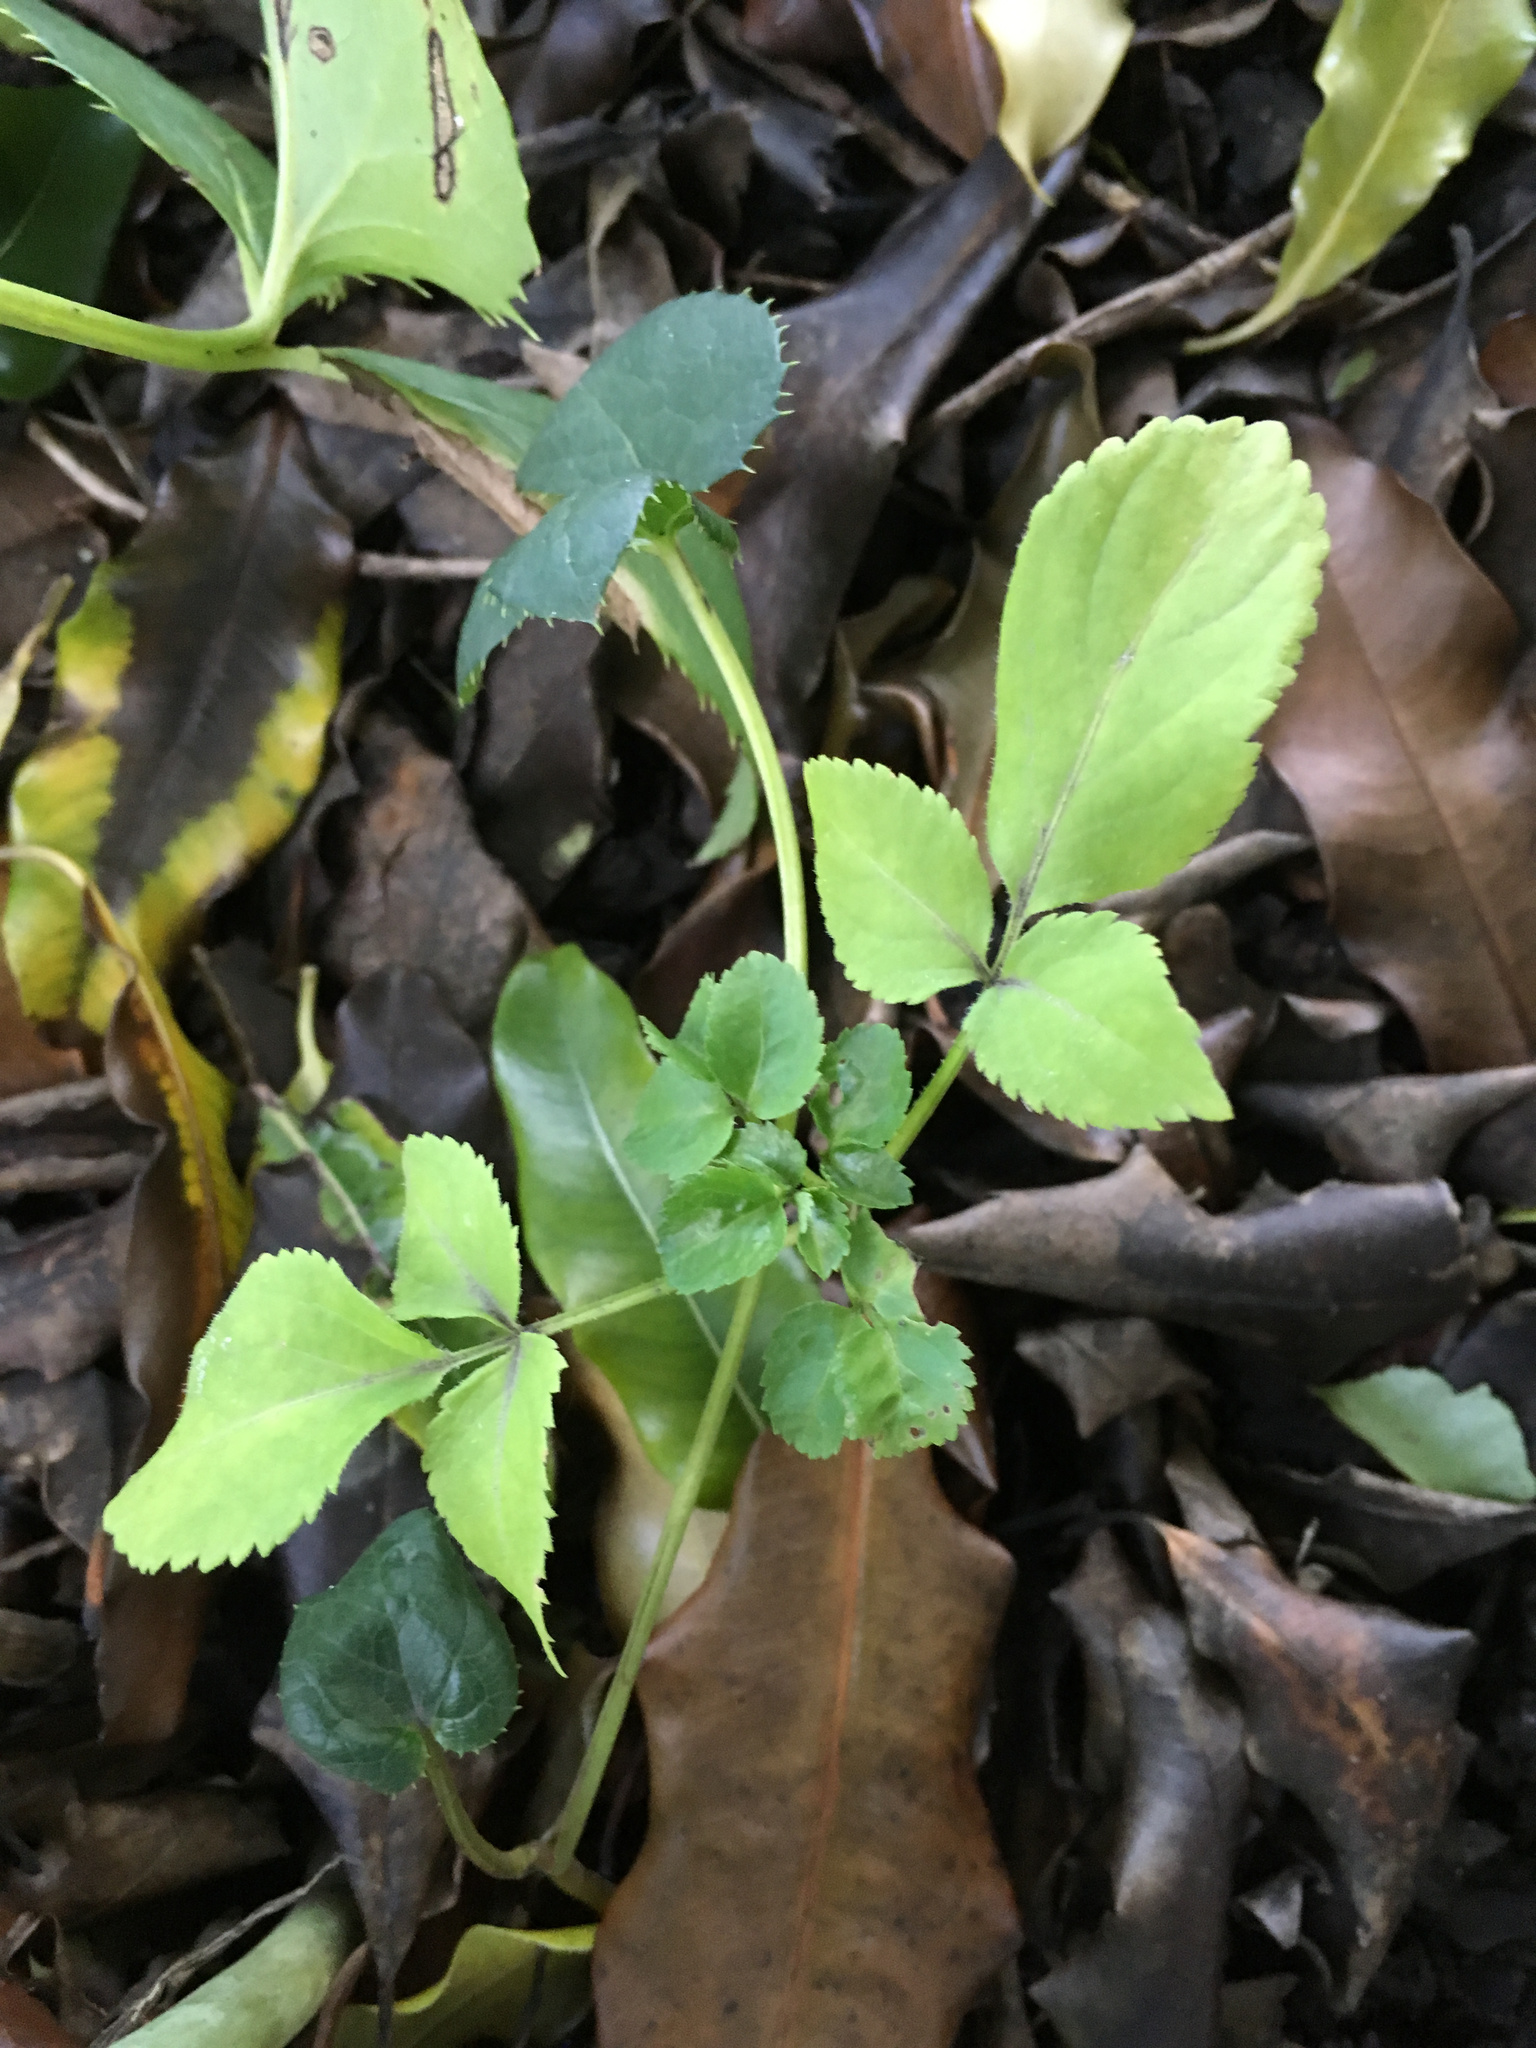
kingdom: Plantae
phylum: Tracheophyta
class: Magnoliopsida
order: Dipsacales
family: Viburnaceae
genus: Sambucus
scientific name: Sambucus nigra
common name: Elder
